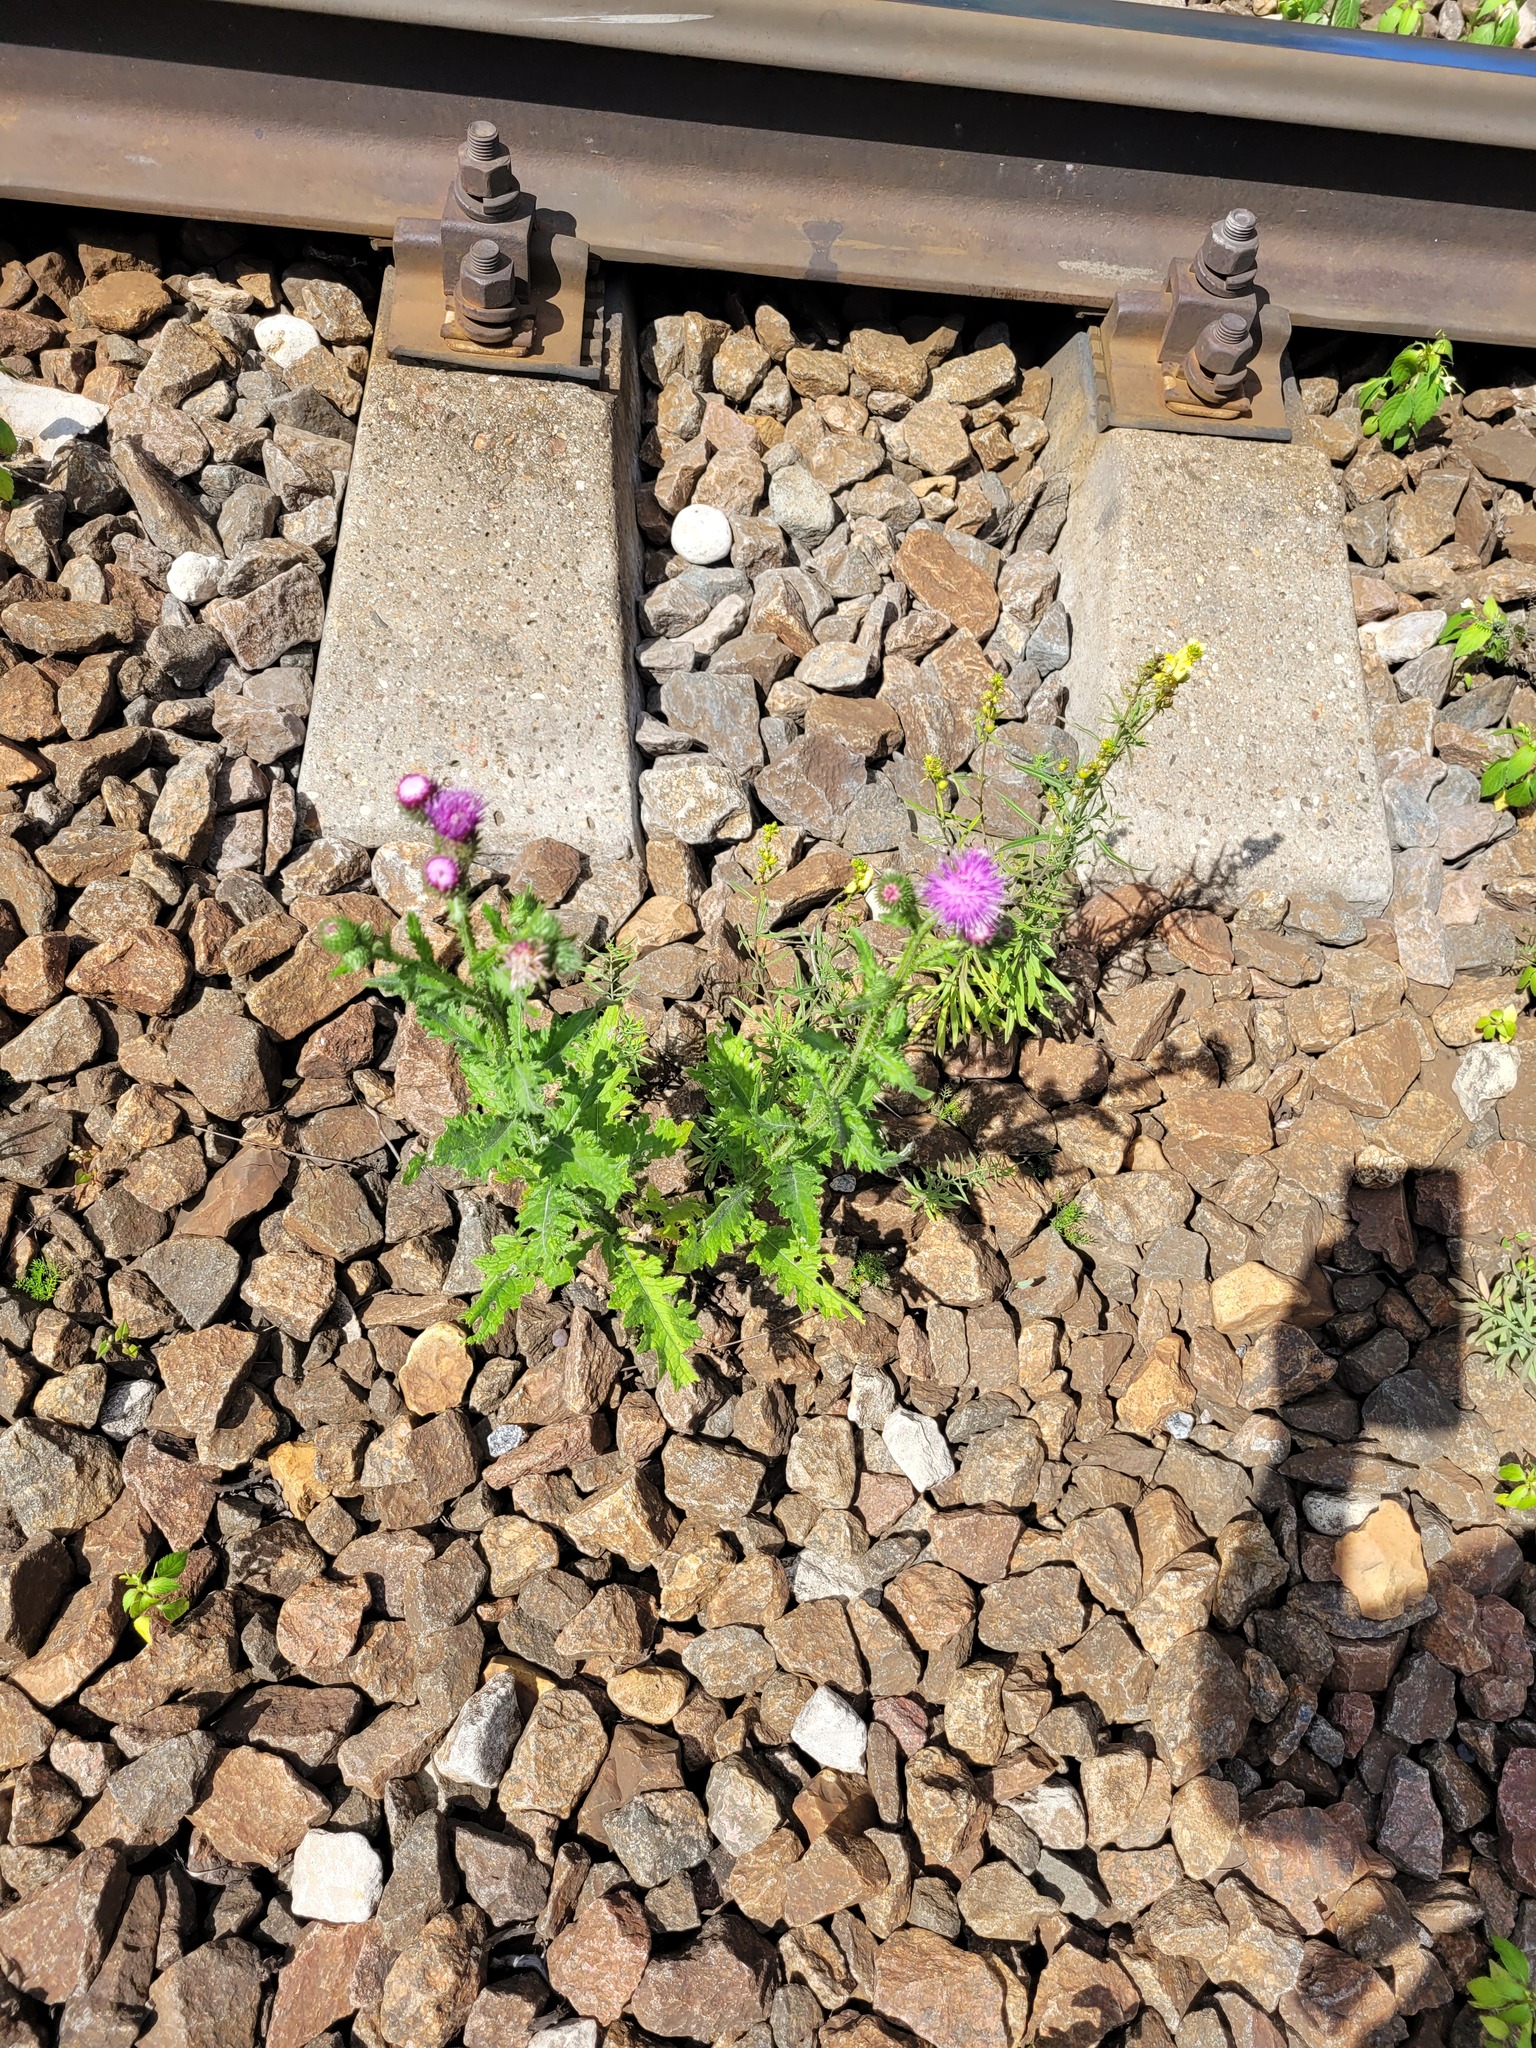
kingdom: Plantae
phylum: Tracheophyta
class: Magnoliopsida
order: Asterales
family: Asteraceae
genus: Carduus
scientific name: Carduus crispus
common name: Welted thistle
